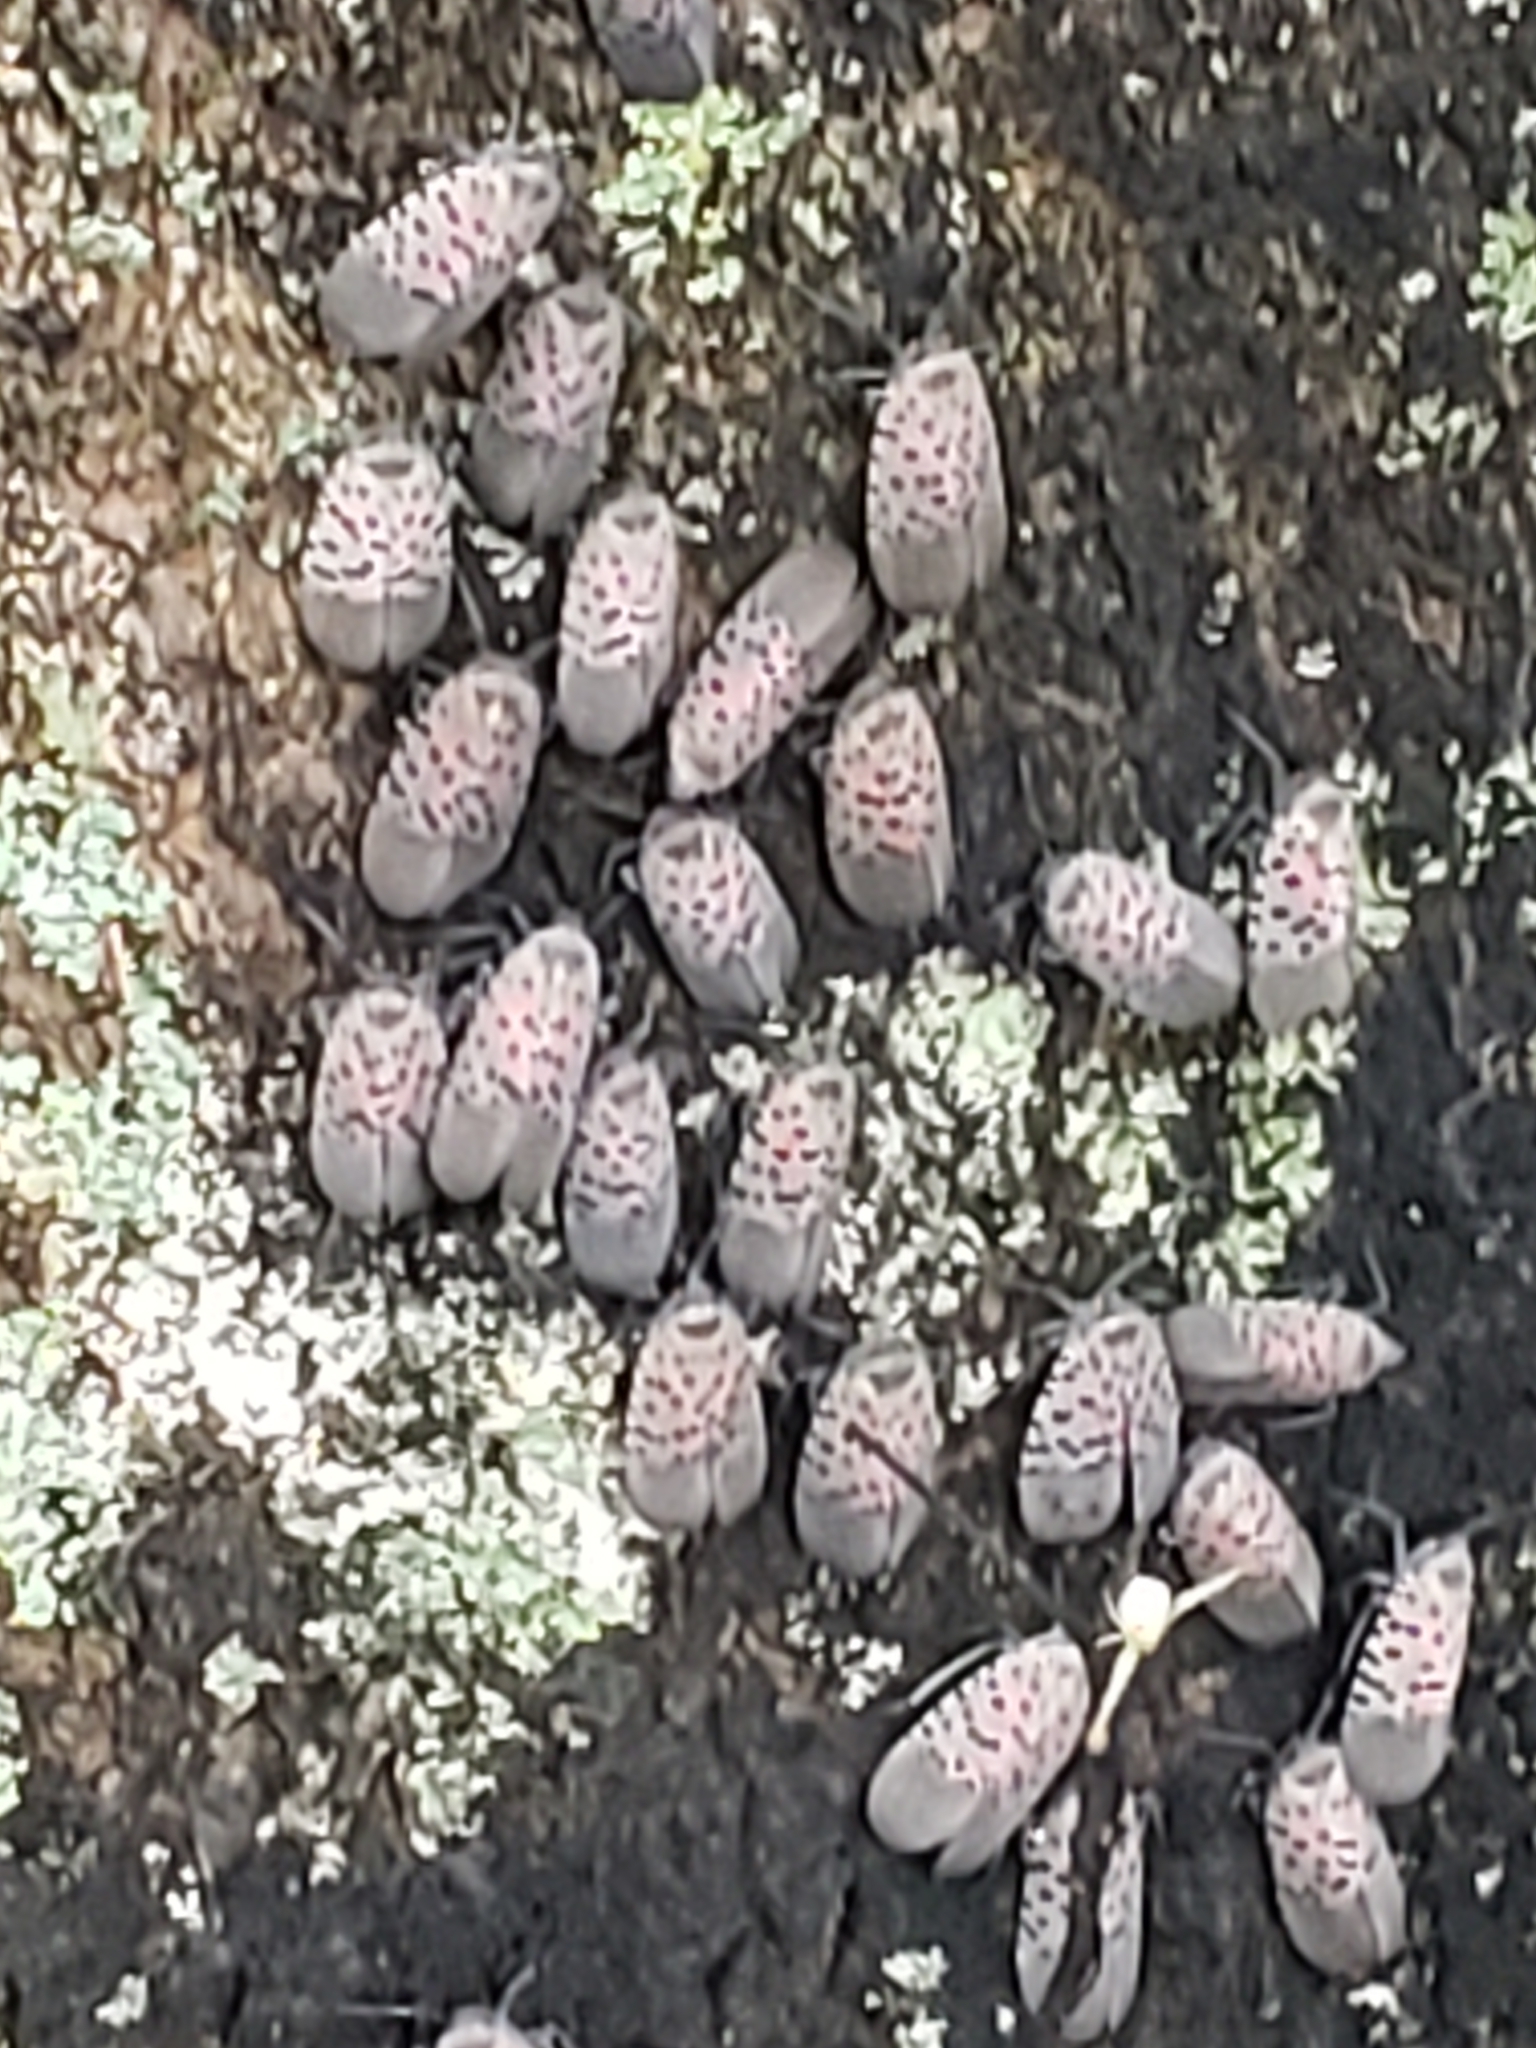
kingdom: Animalia
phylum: Arthropoda
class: Insecta
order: Hemiptera
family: Fulgoridae
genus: Lycorma
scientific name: Lycorma delicatula
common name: Spotted lanternfly
